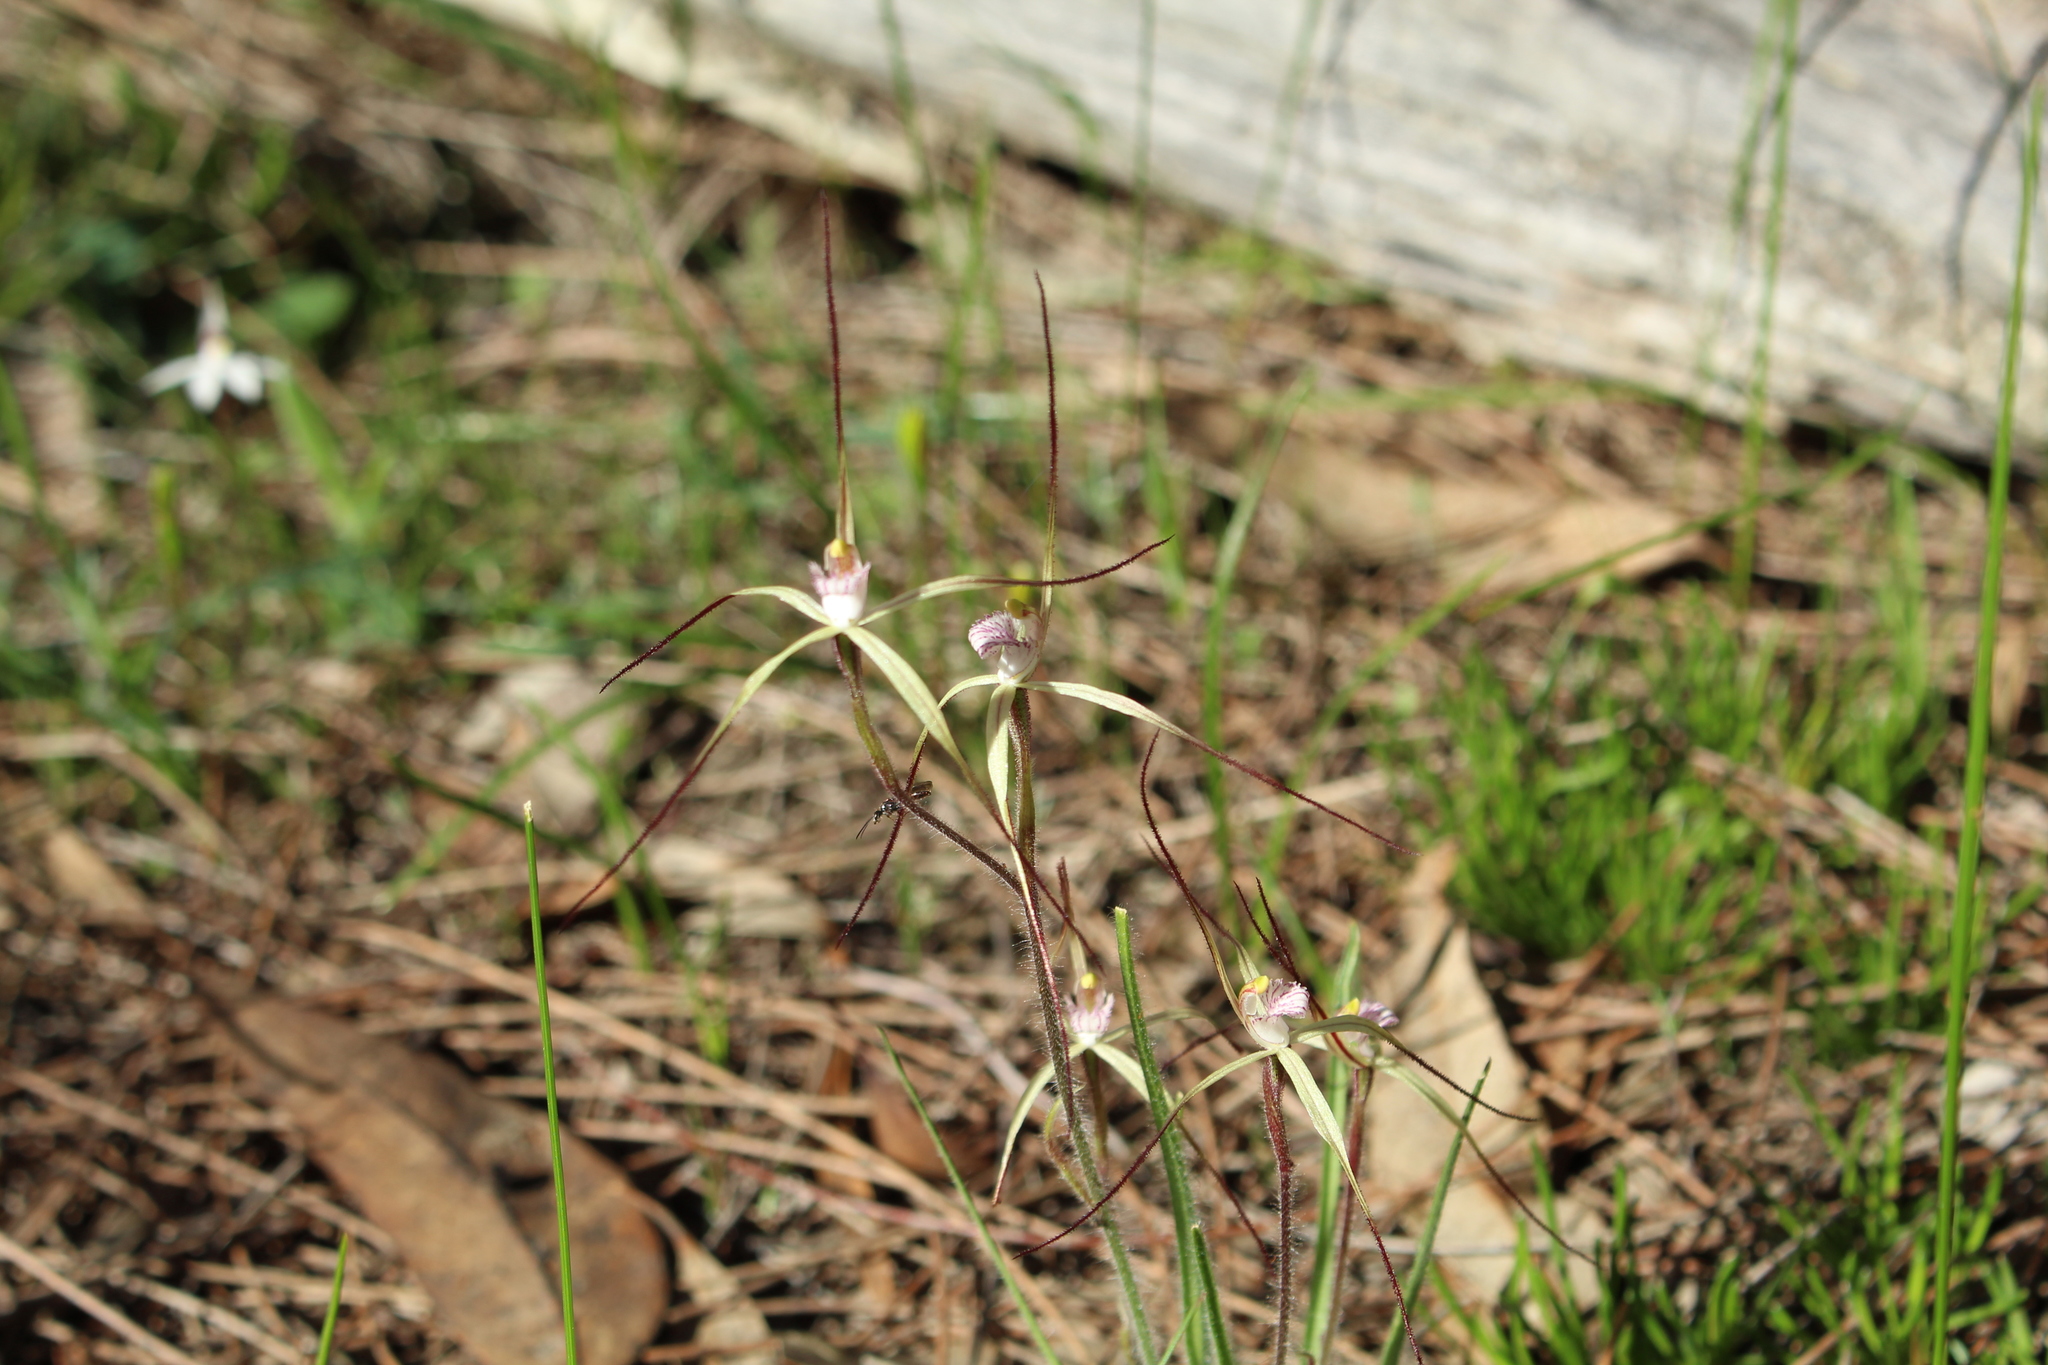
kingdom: Plantae
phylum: Tracheophyta
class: Liliopsida
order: Asparagales
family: Orchidaceae
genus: Caladenia
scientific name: Caladenia polychroma
